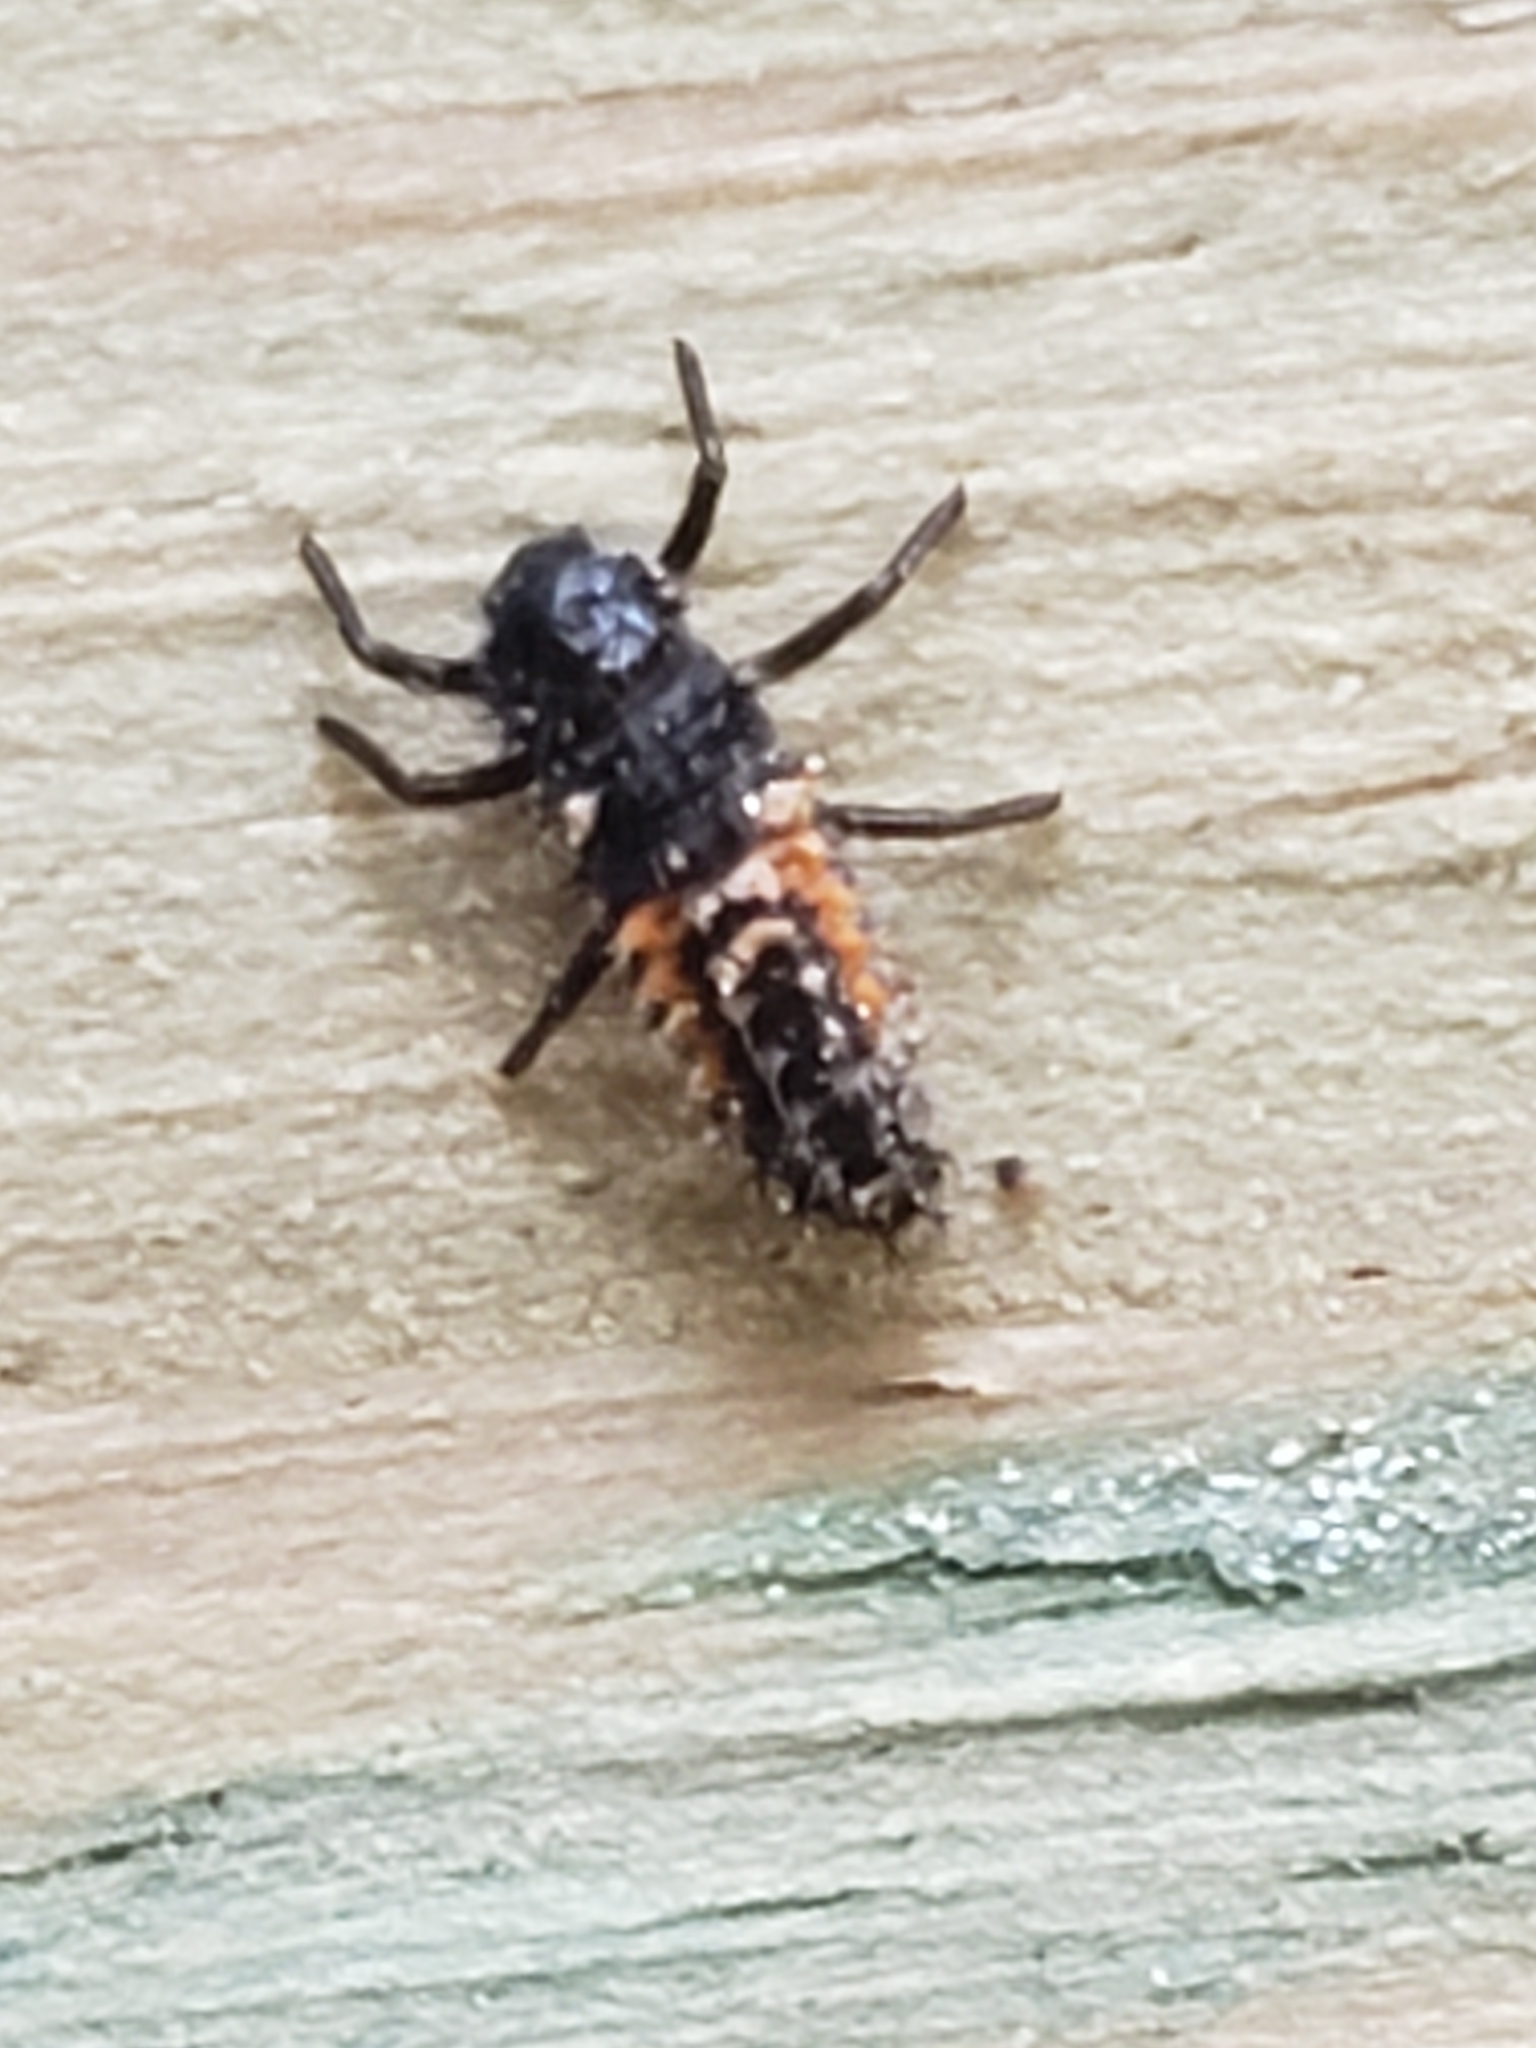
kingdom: Animalia
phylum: Arthropoda
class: Insecta
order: Coleoptera
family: Coccinellidae
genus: Harmonia
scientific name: Harmonia axyridis
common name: Harlequin ladybird
